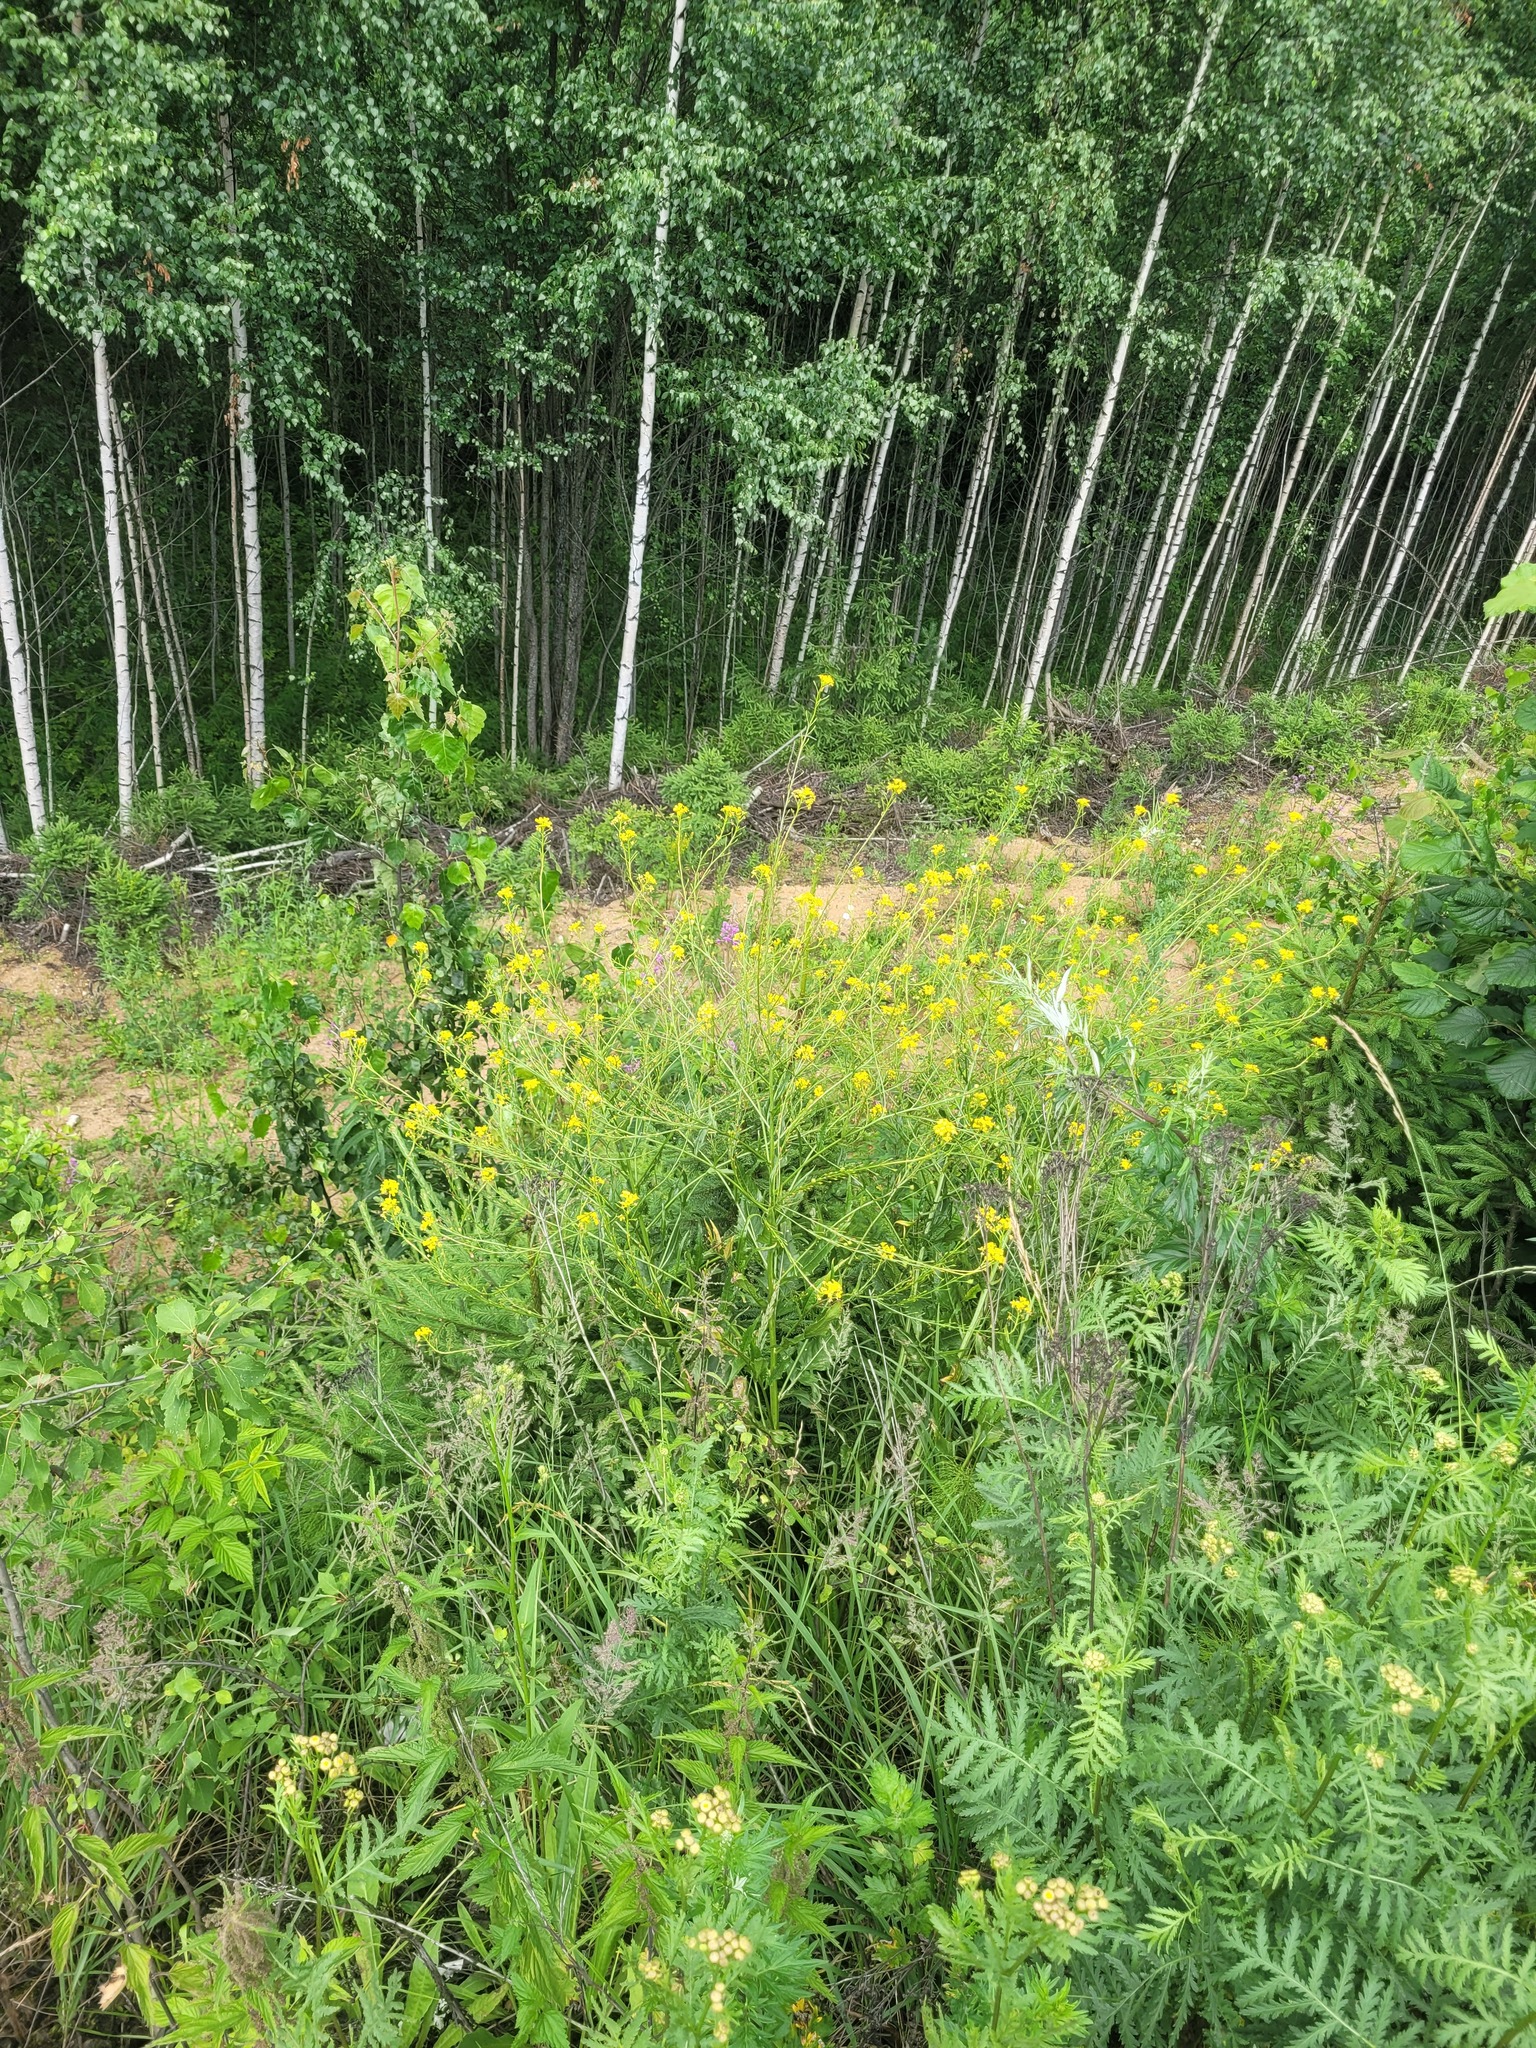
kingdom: Plantae
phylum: Tracheophyta
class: Magnoliopsida
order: Brassicales
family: Brassicaceae
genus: Bunias
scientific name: Bunias orientalis
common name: Warty-cabbage
